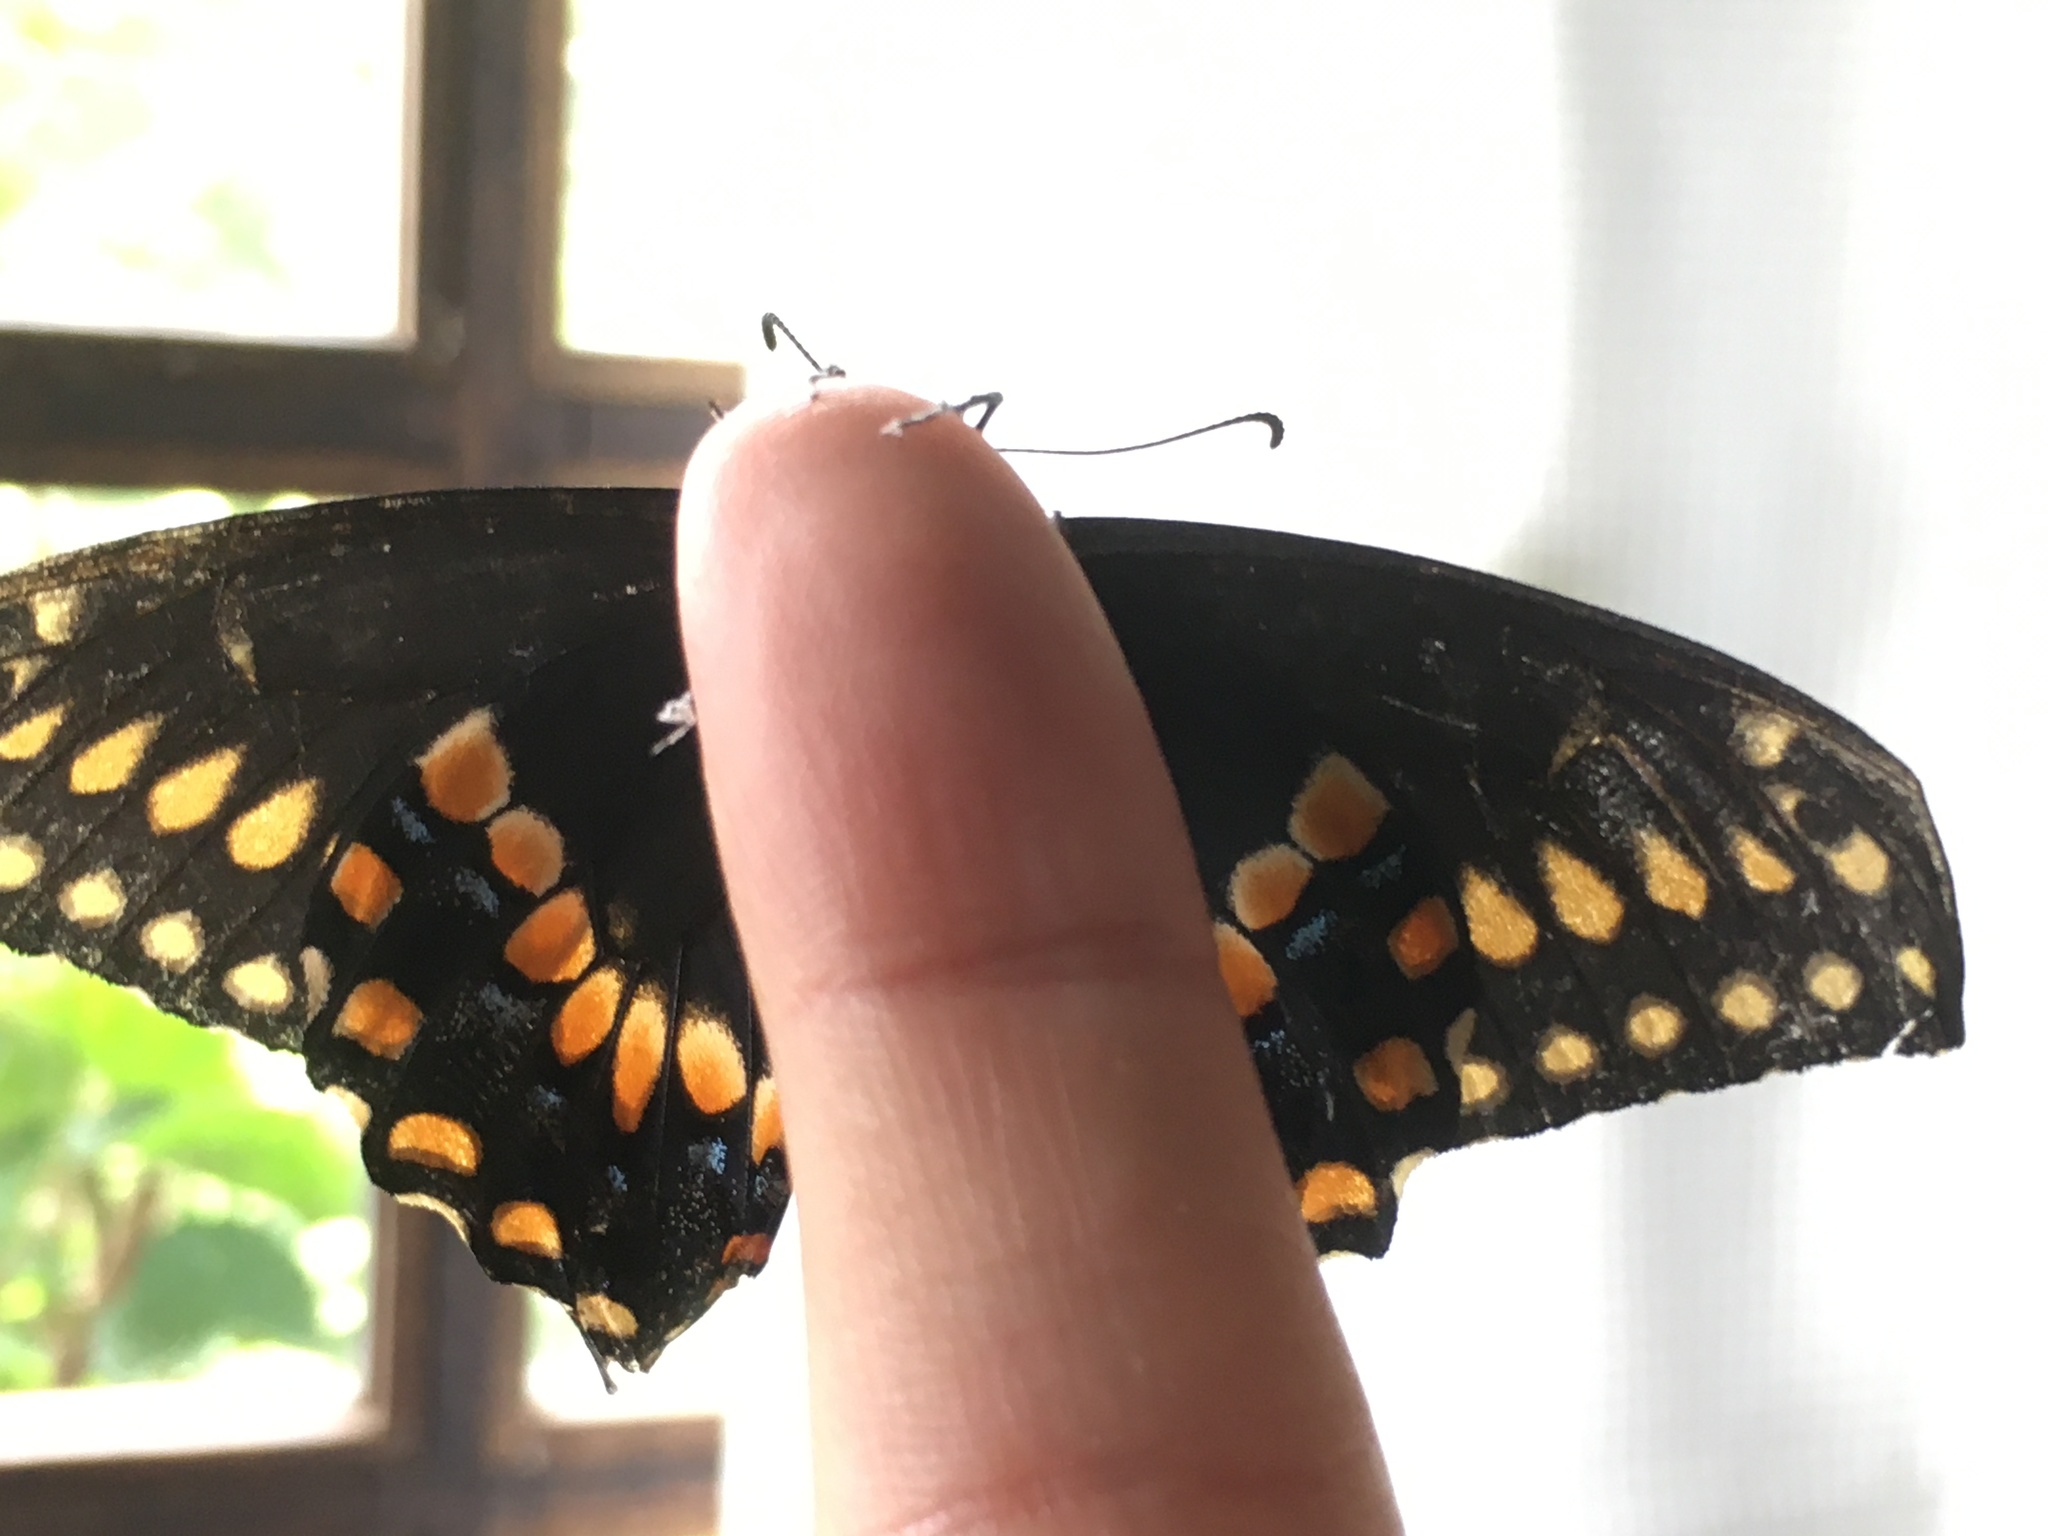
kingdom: Animalia
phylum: Arthropoda
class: Insecta
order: Lepidoptera
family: Papilionidae
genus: Papilio
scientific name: Papilio polyxenes
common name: Black swallowtail
